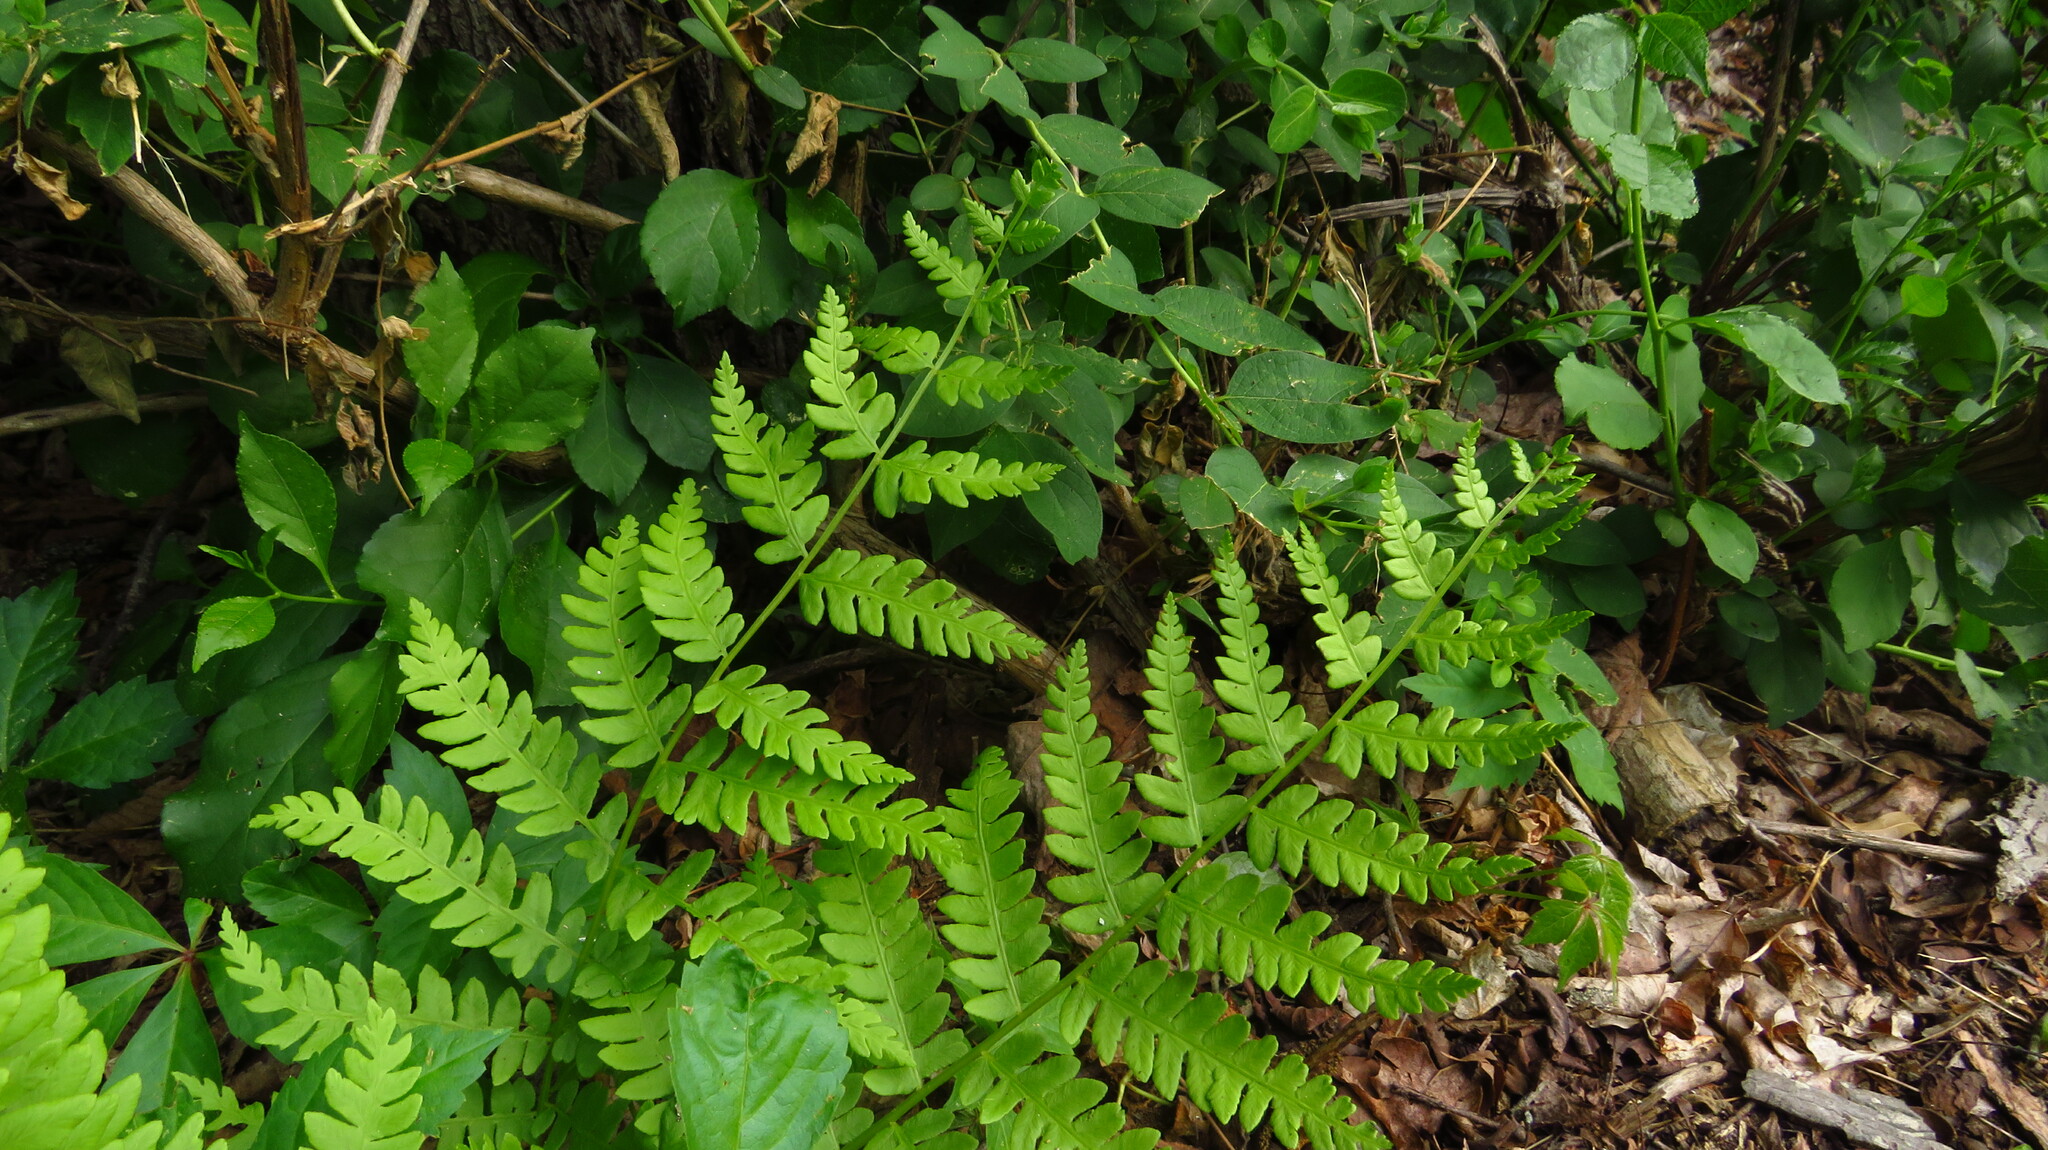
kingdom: Plantae
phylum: Tracheophyta
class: Polypodiopsida
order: Osmundales
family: Osmundaceae
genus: Osmundastrum
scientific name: Osmundastrum cinnamomeum
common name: Cinnamon fern
